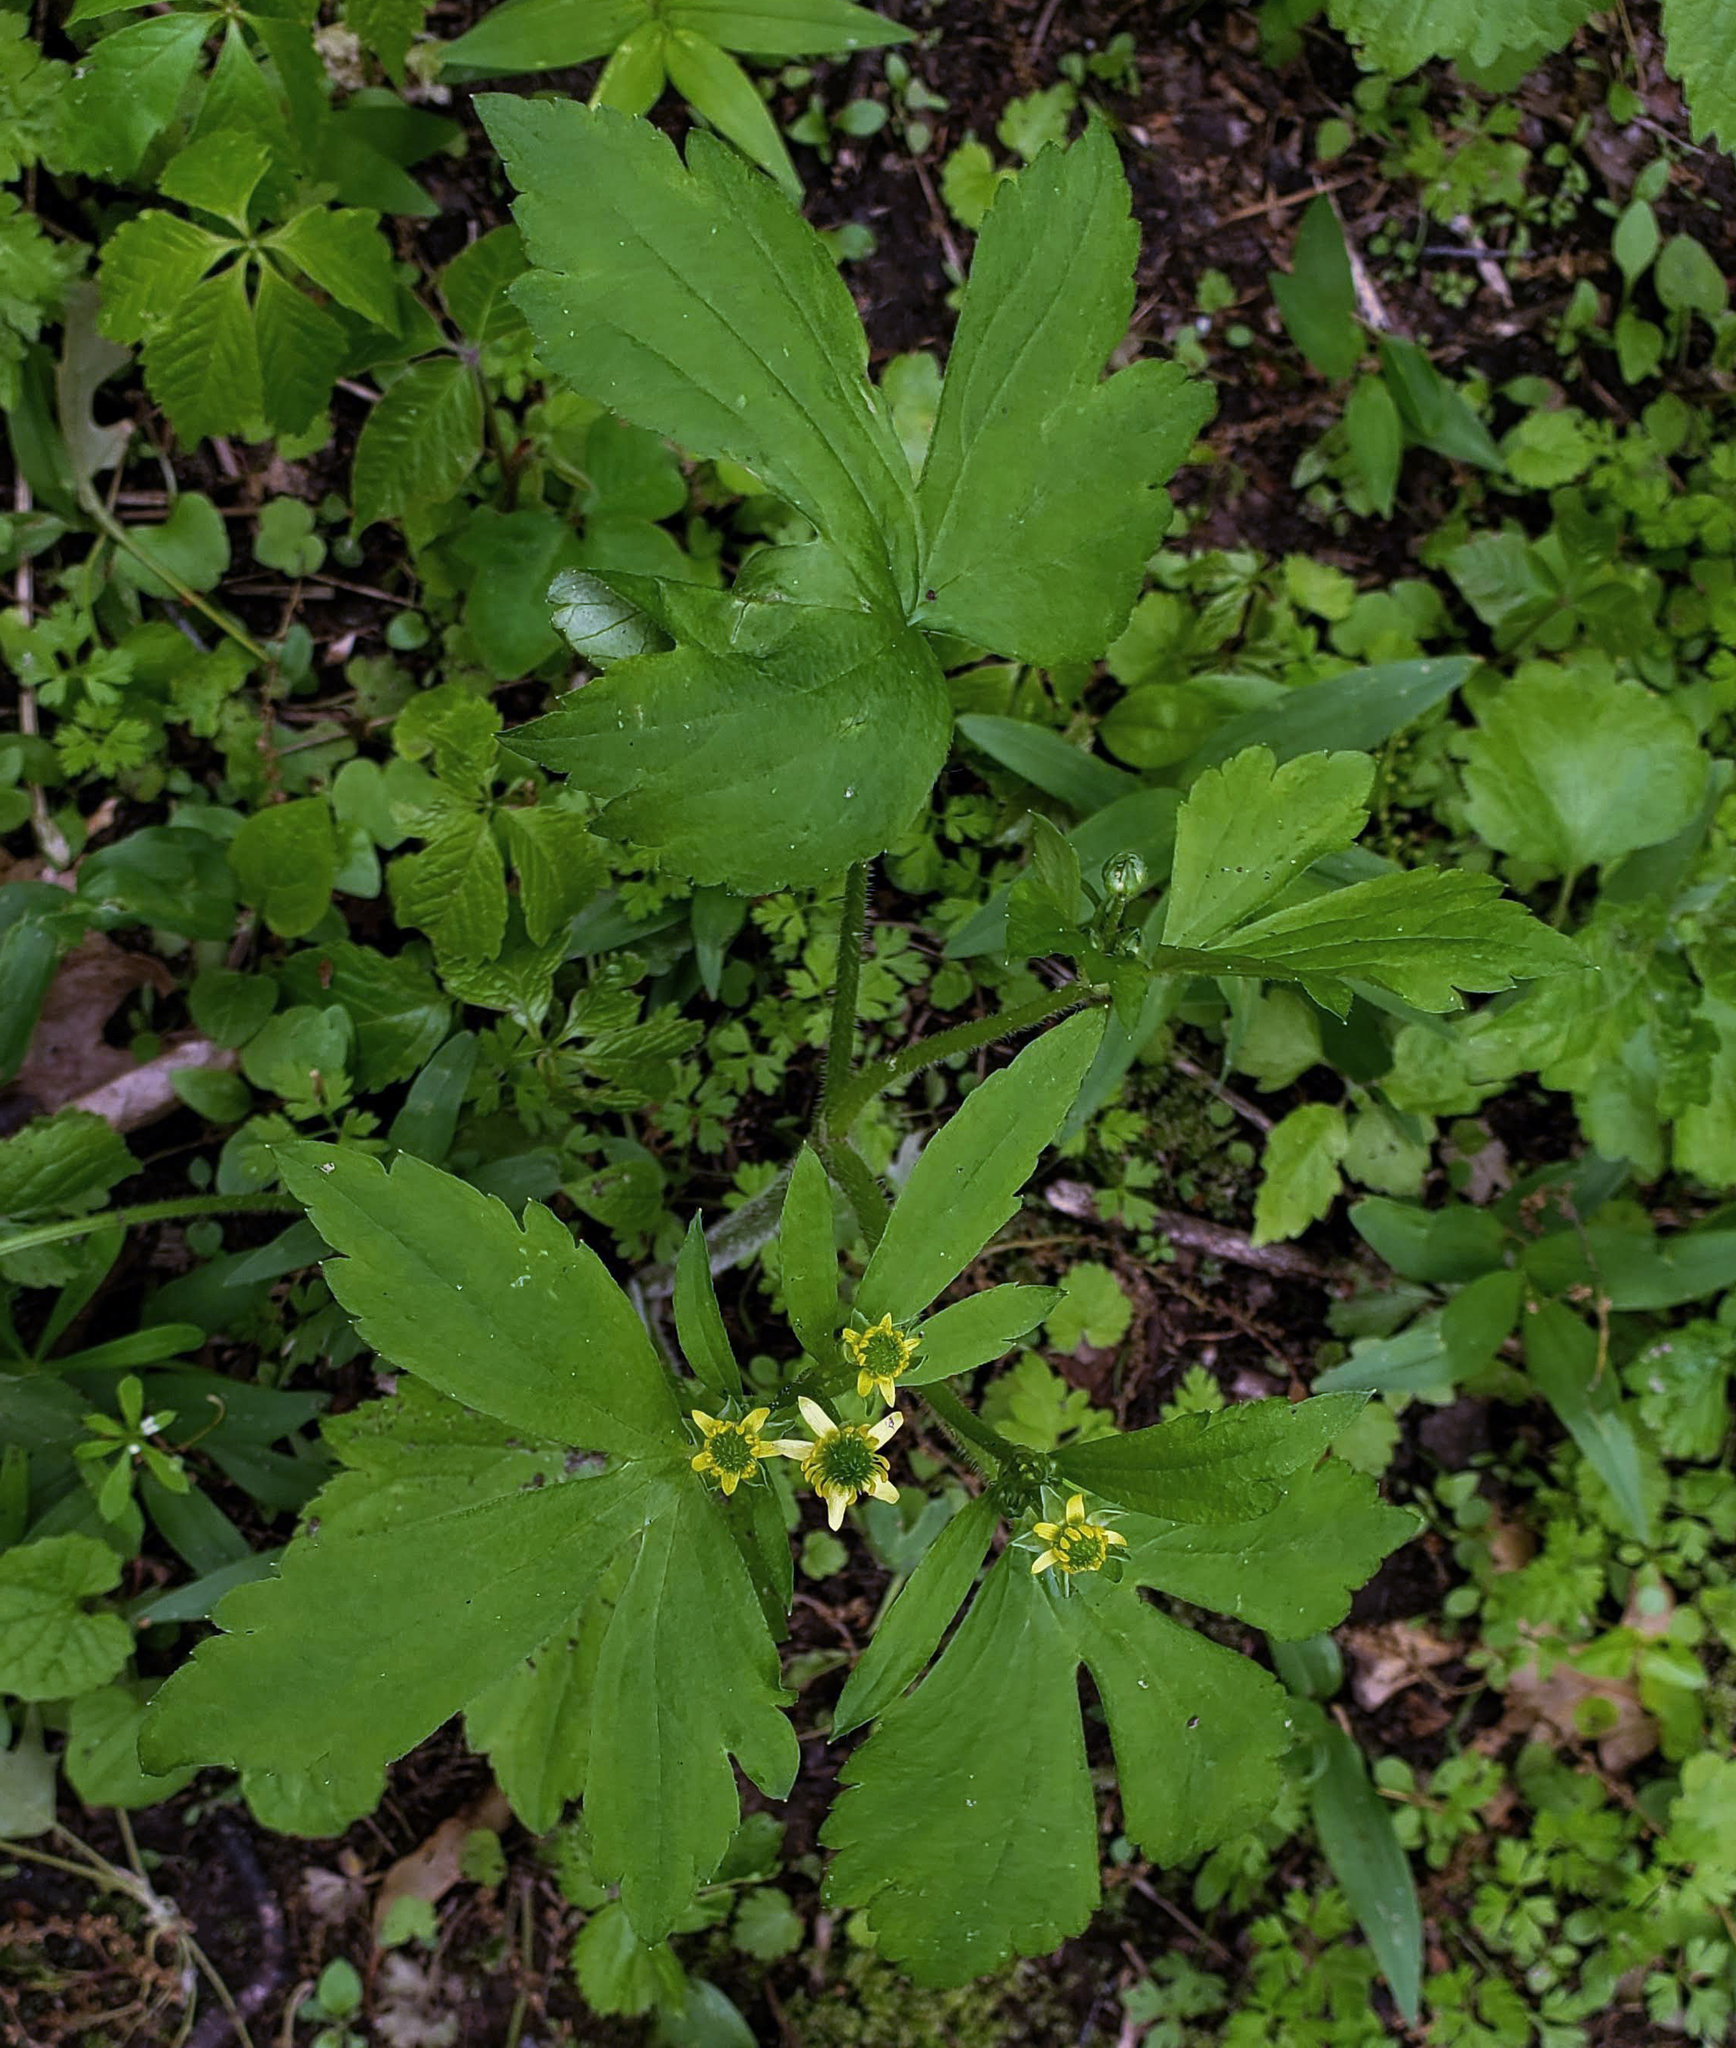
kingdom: Plantae
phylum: Tracheophyta
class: Magnoliopsida
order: Ranunculales
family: Ranunculaceae
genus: Ranunculus
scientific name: Ranunculus recurvatus
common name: Blisterwort
